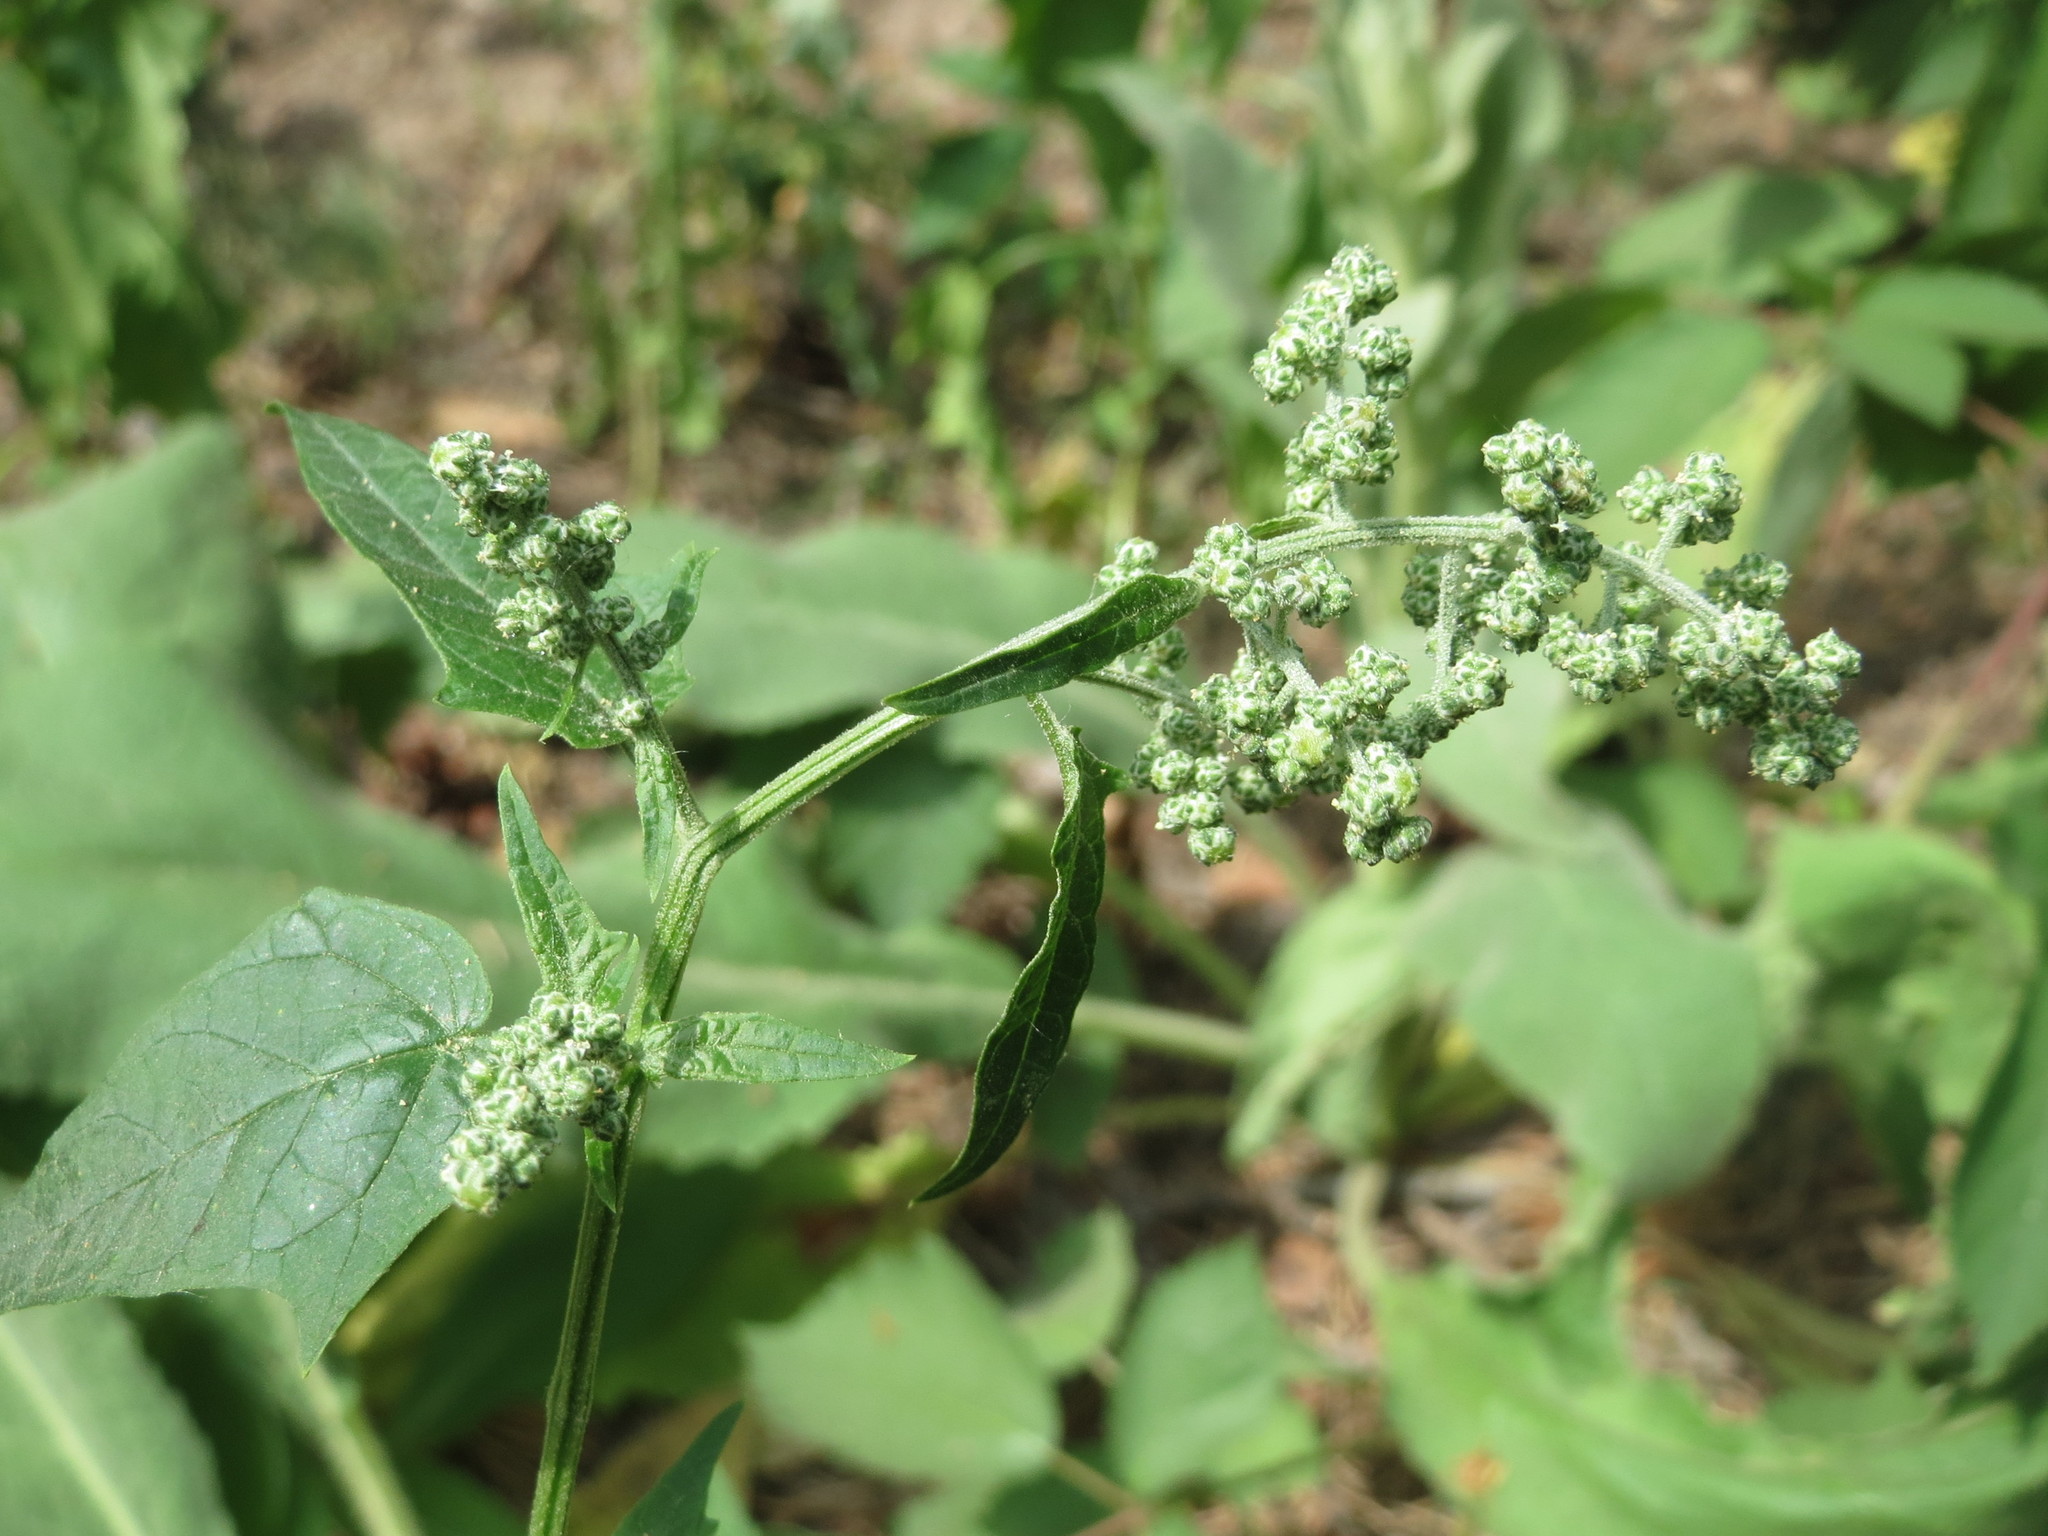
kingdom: Plantae
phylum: Tracheophyta
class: Magnoliopsida
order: Caryophyllales
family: Amaranthaceae
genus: Chenopodiastrum
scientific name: Chenopodiastrum hybridum
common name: Mapleleaf goosefoot
